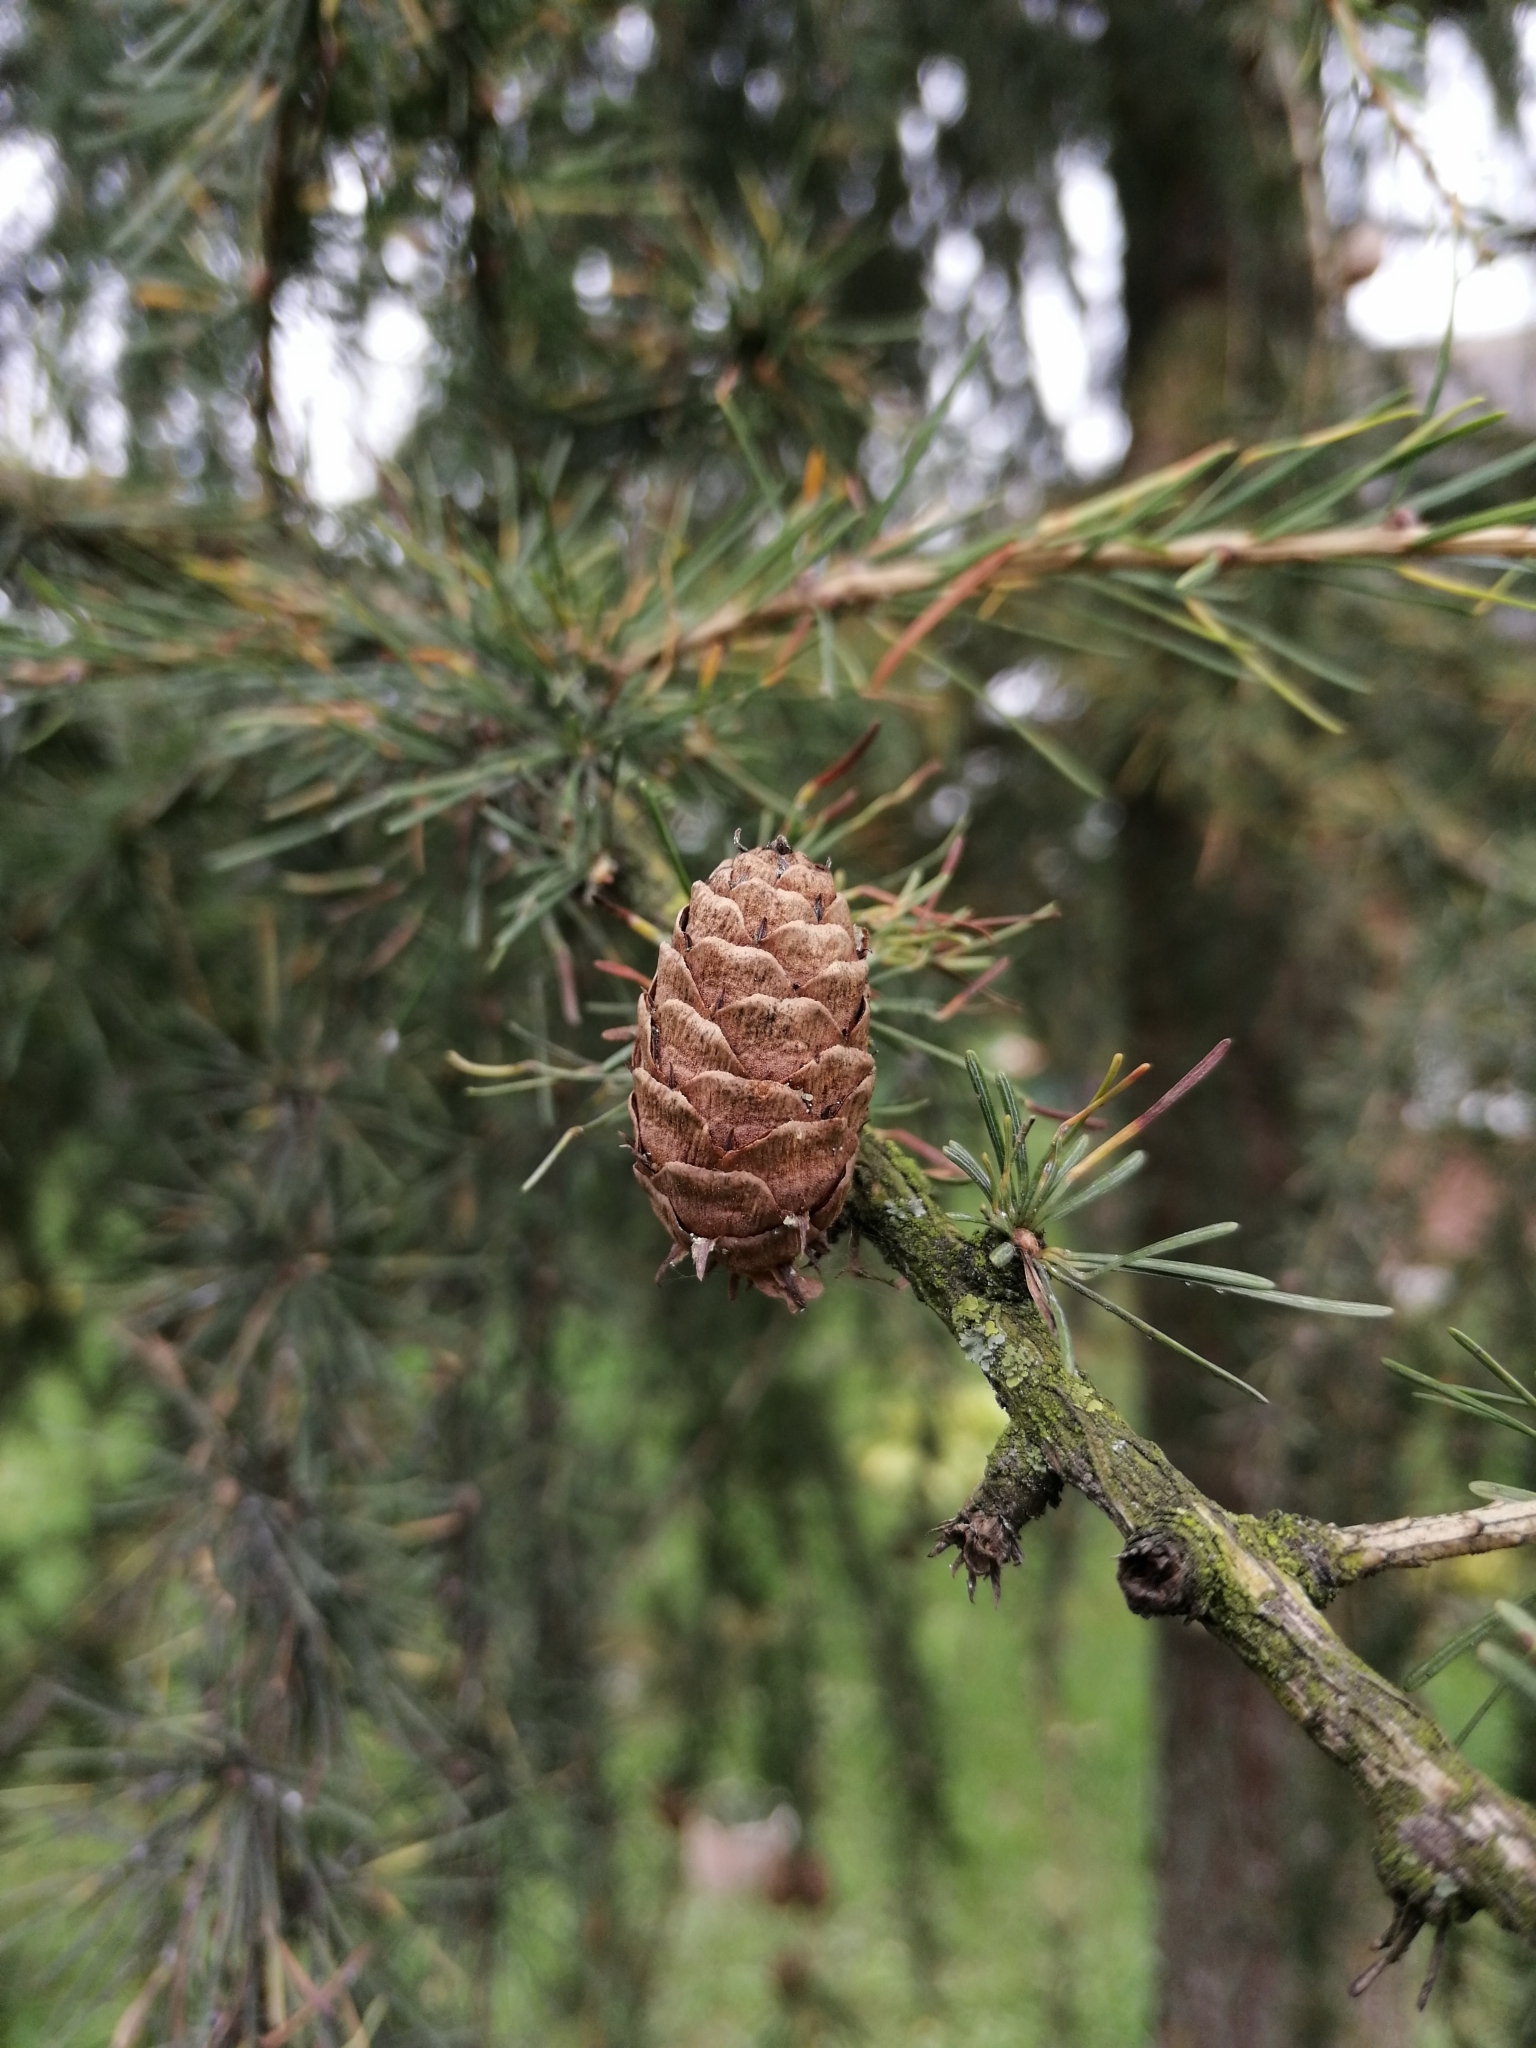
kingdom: Plantae
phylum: Tracheophyta
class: Pinopsida
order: Pinales
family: Pinaceae
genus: Larix
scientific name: Larix decidua
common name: European larch
